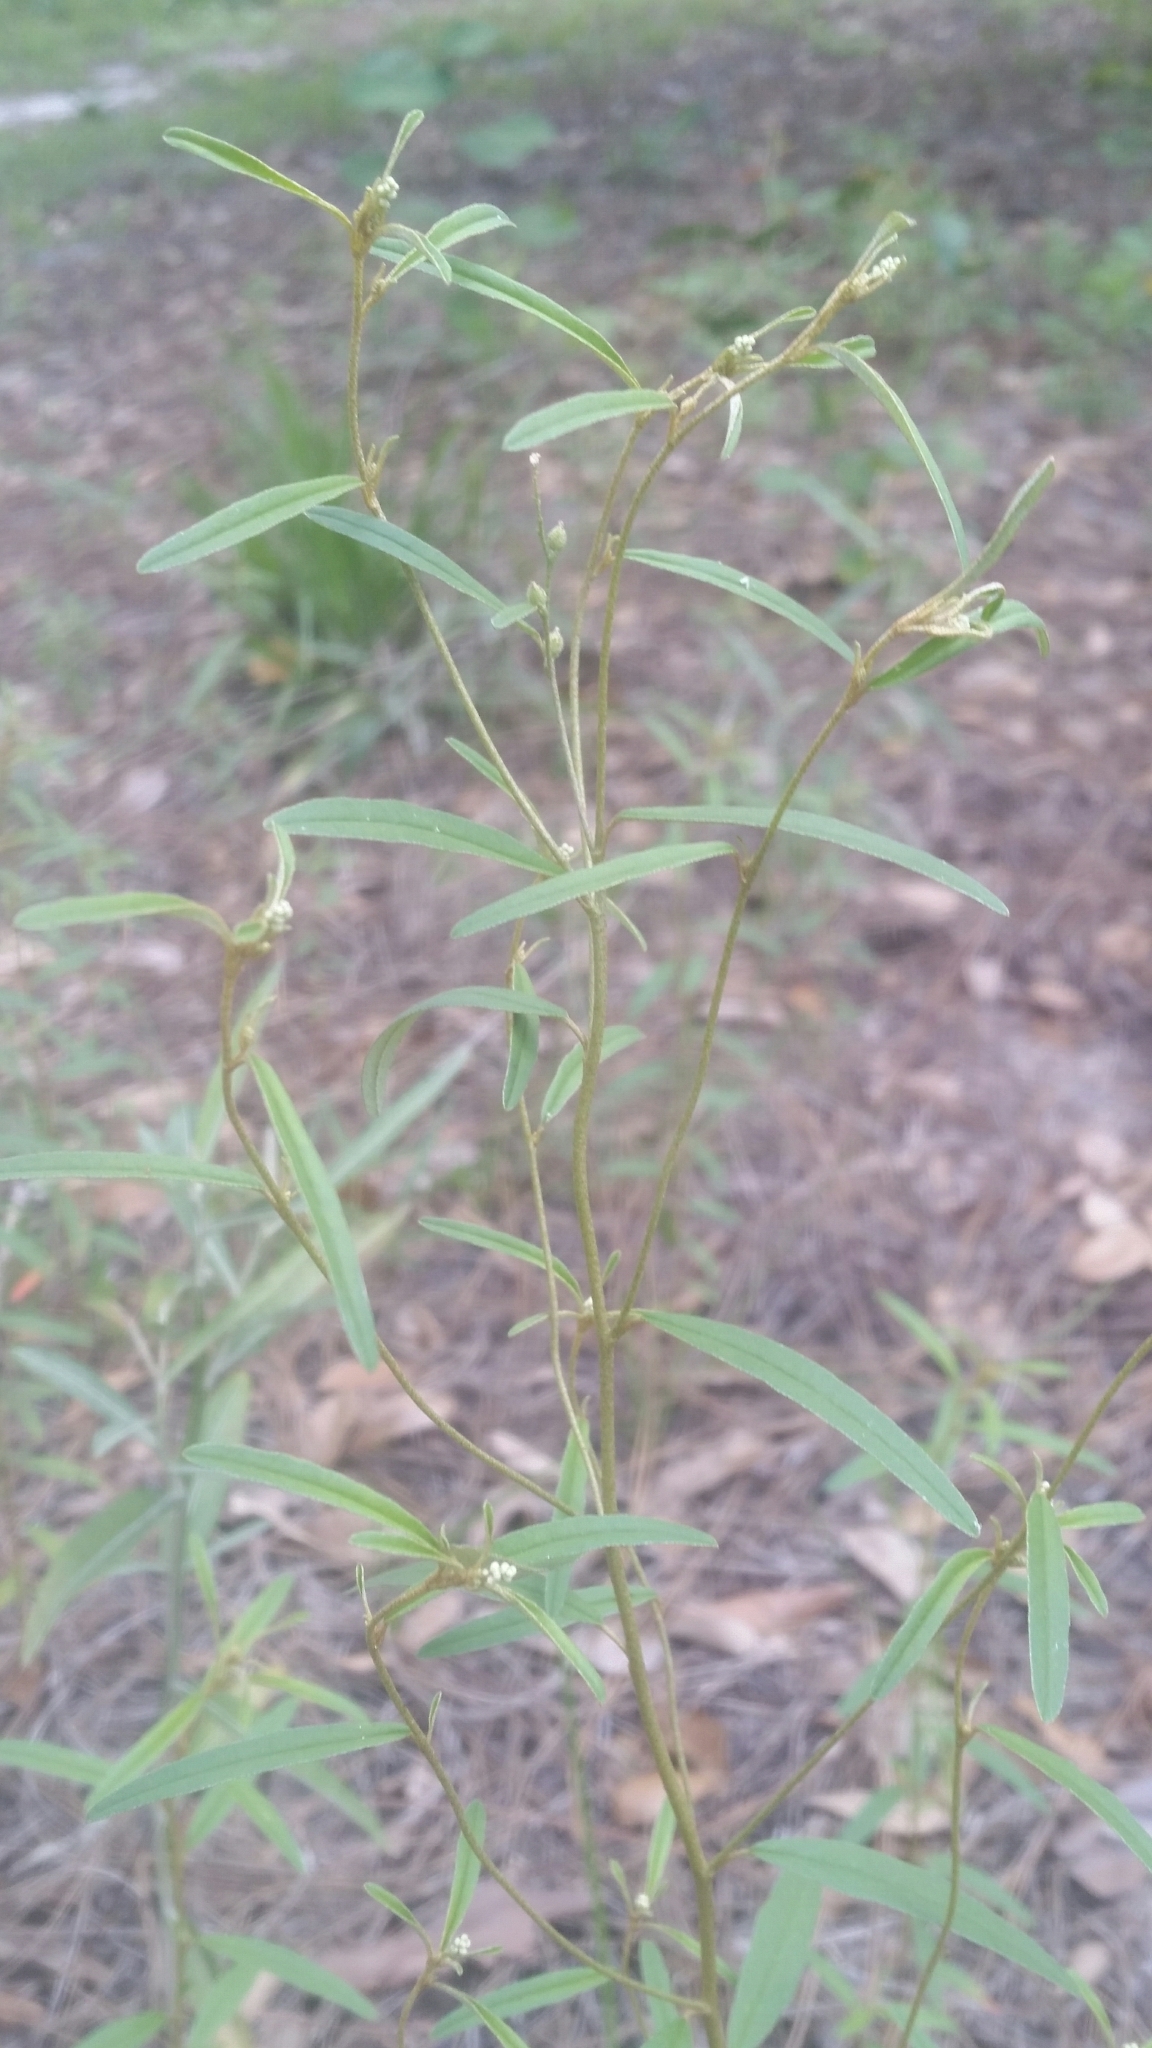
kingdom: Plantae
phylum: Tracheophyta
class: Magnoliopsida
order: Malpighiales
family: Euphorbiaceae
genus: Croton
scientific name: Croton michauxii
